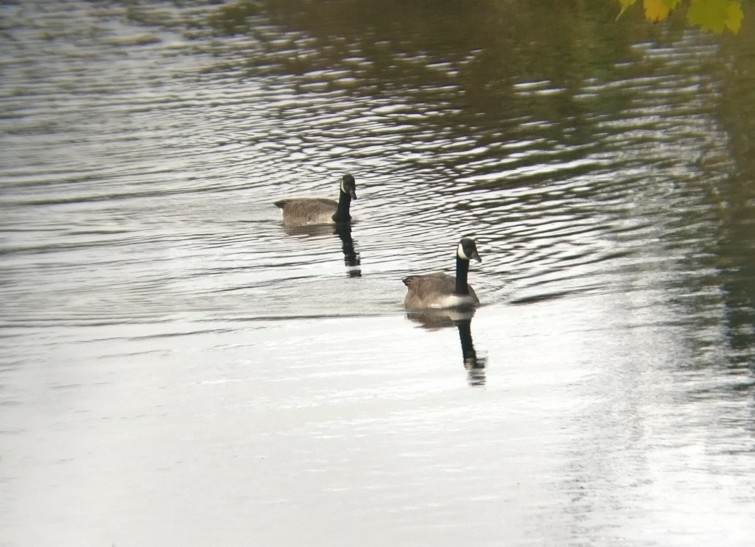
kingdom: Animalia
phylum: Chordata
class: Aves
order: Anseriformes
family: Anatidae
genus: Branta
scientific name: Branta canadensis
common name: Canada goose
